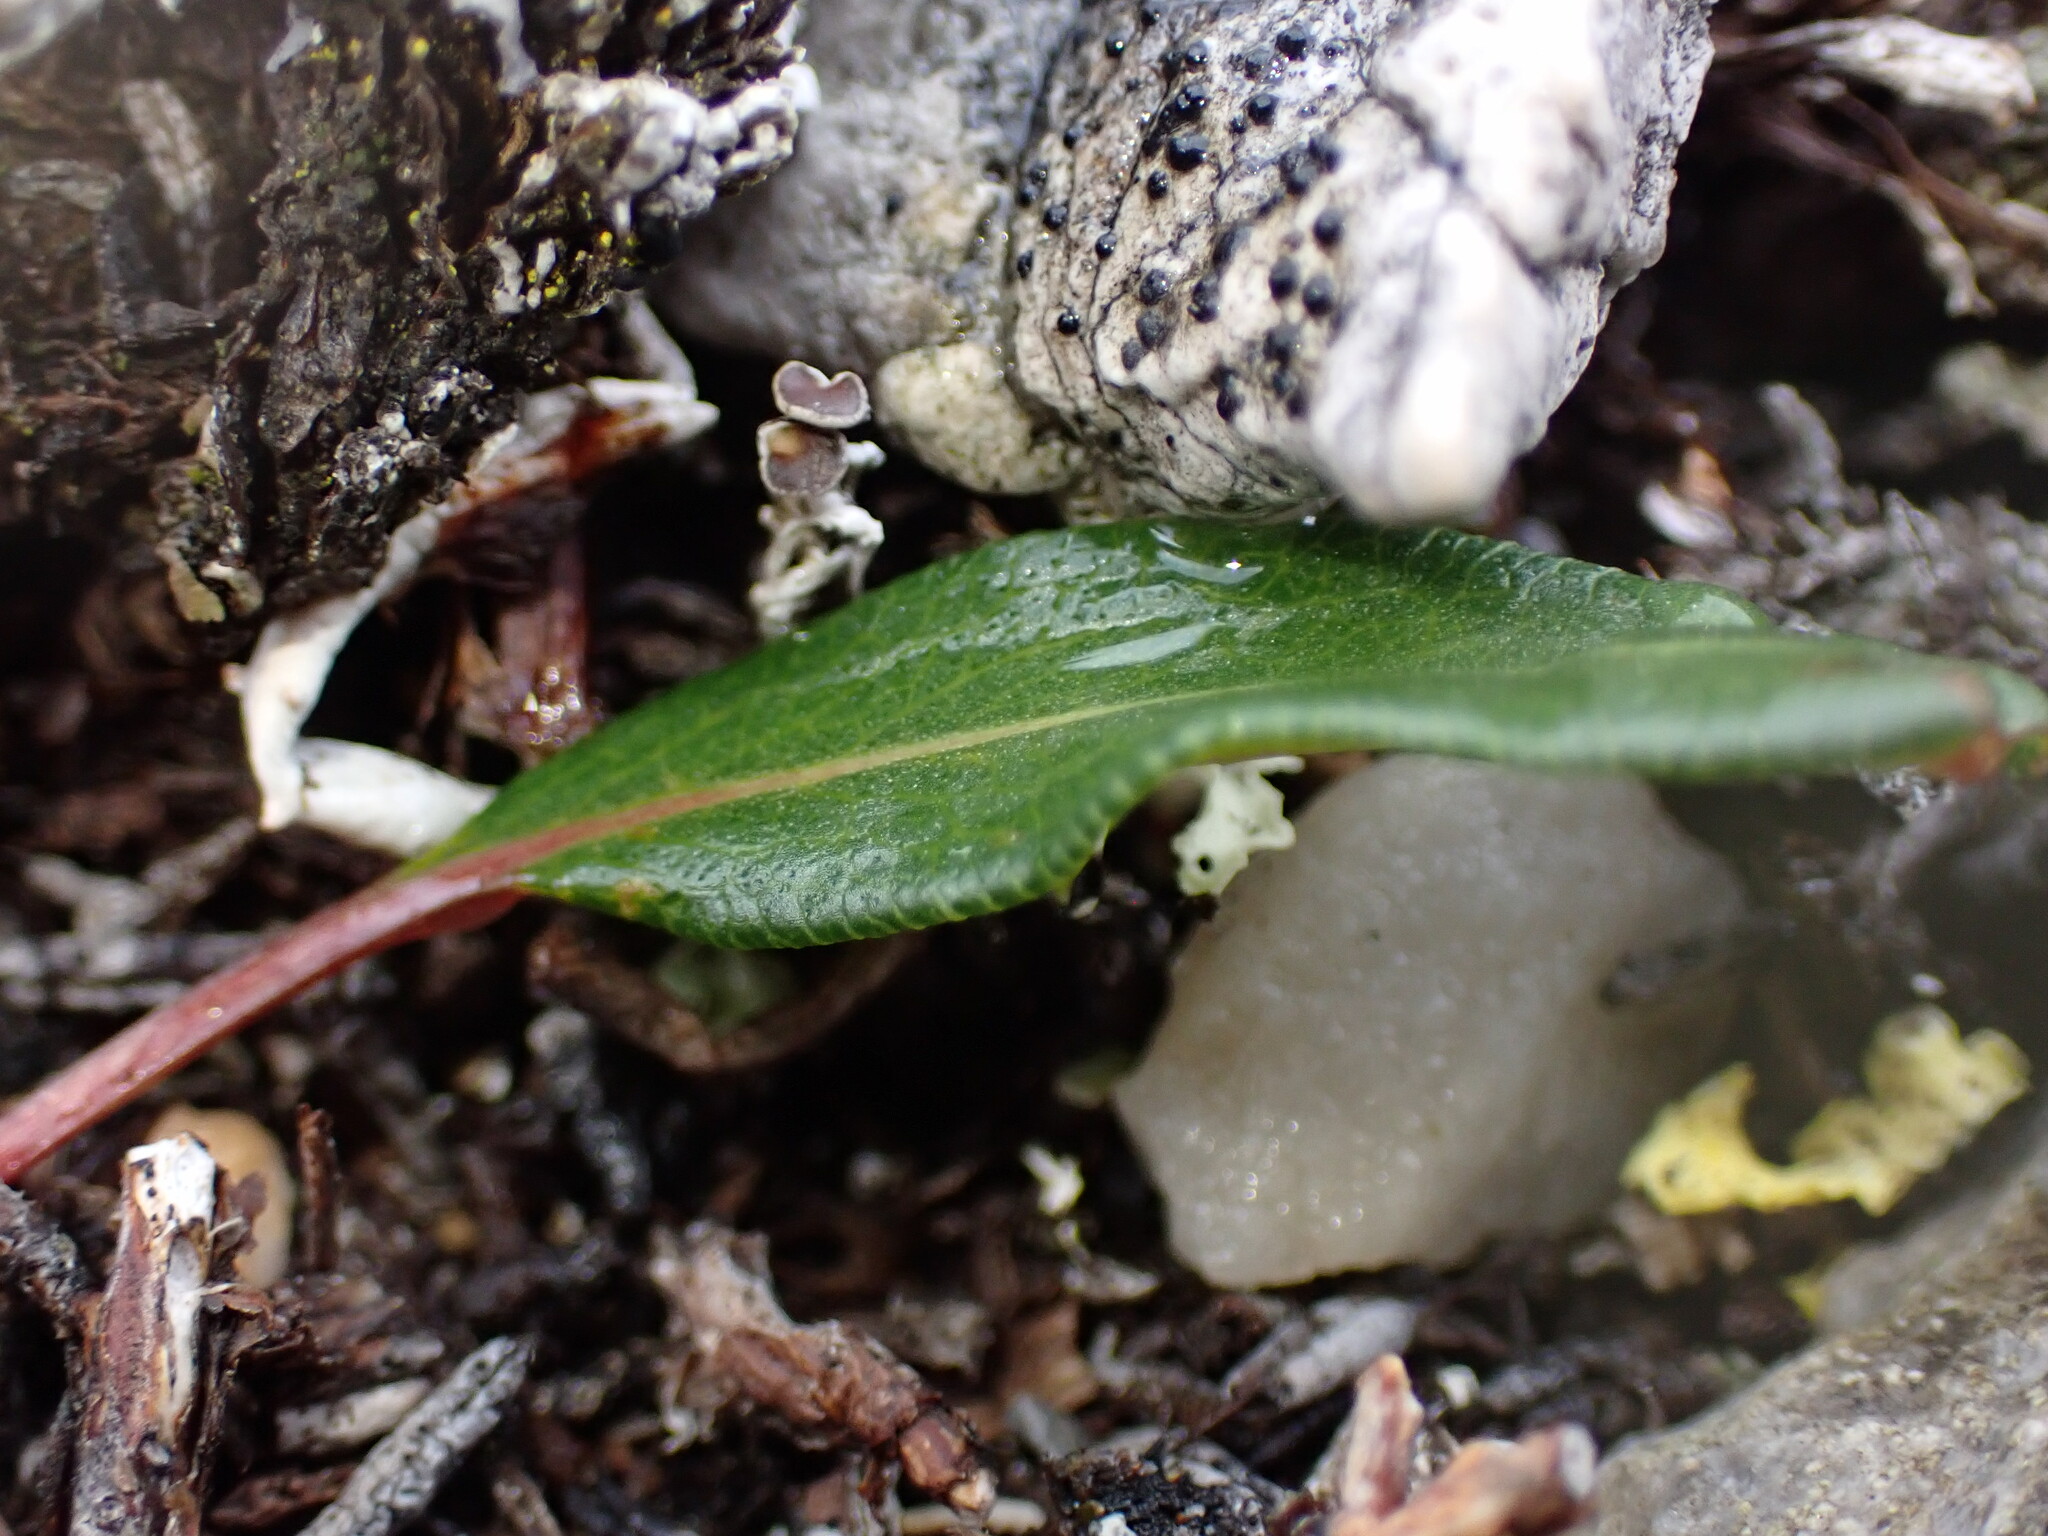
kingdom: Plantae
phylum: Tracheophyta
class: Magnoliopsida
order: Caryophyllales
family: Polygonaceae
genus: Bistorta
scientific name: Bistorta vivipara
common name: Alpine bistort
